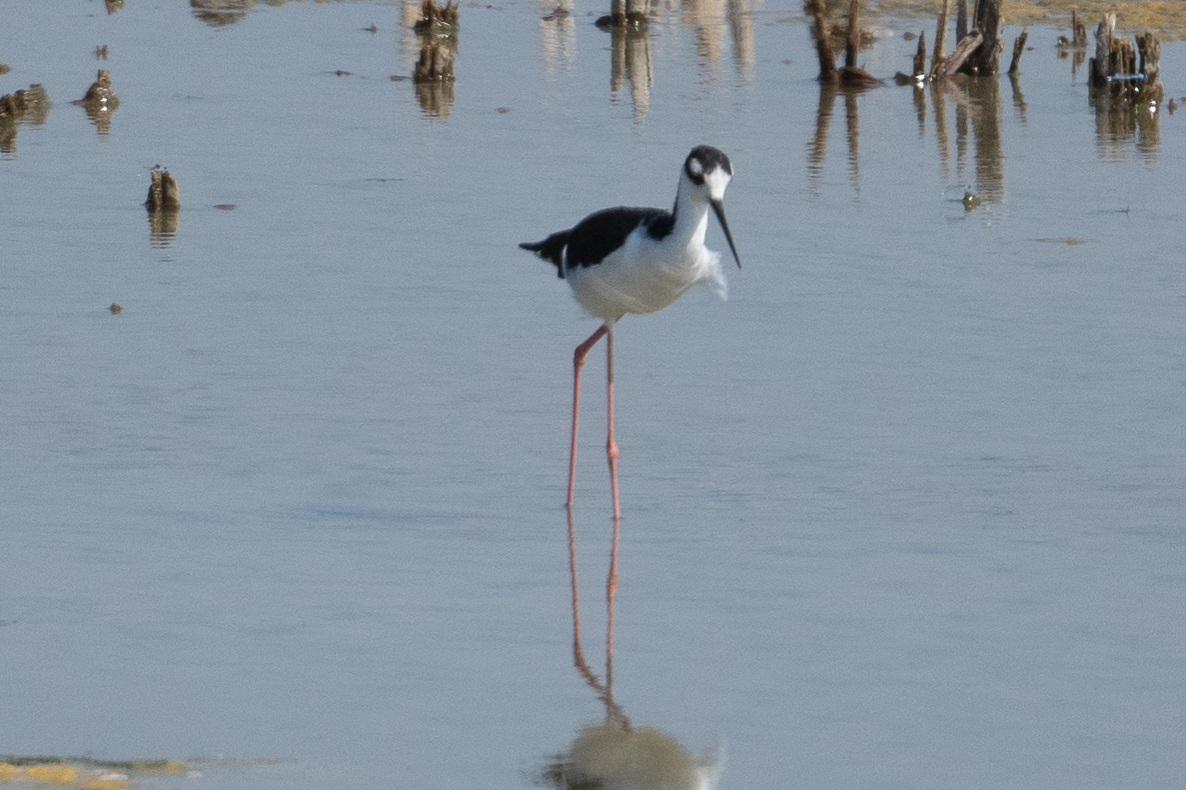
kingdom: Animalia
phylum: Chordata
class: Aves
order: Charadriiformes
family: Recurvirostridae
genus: Himantopus
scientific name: Himantopus mexicanus
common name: Black-necked stilt
